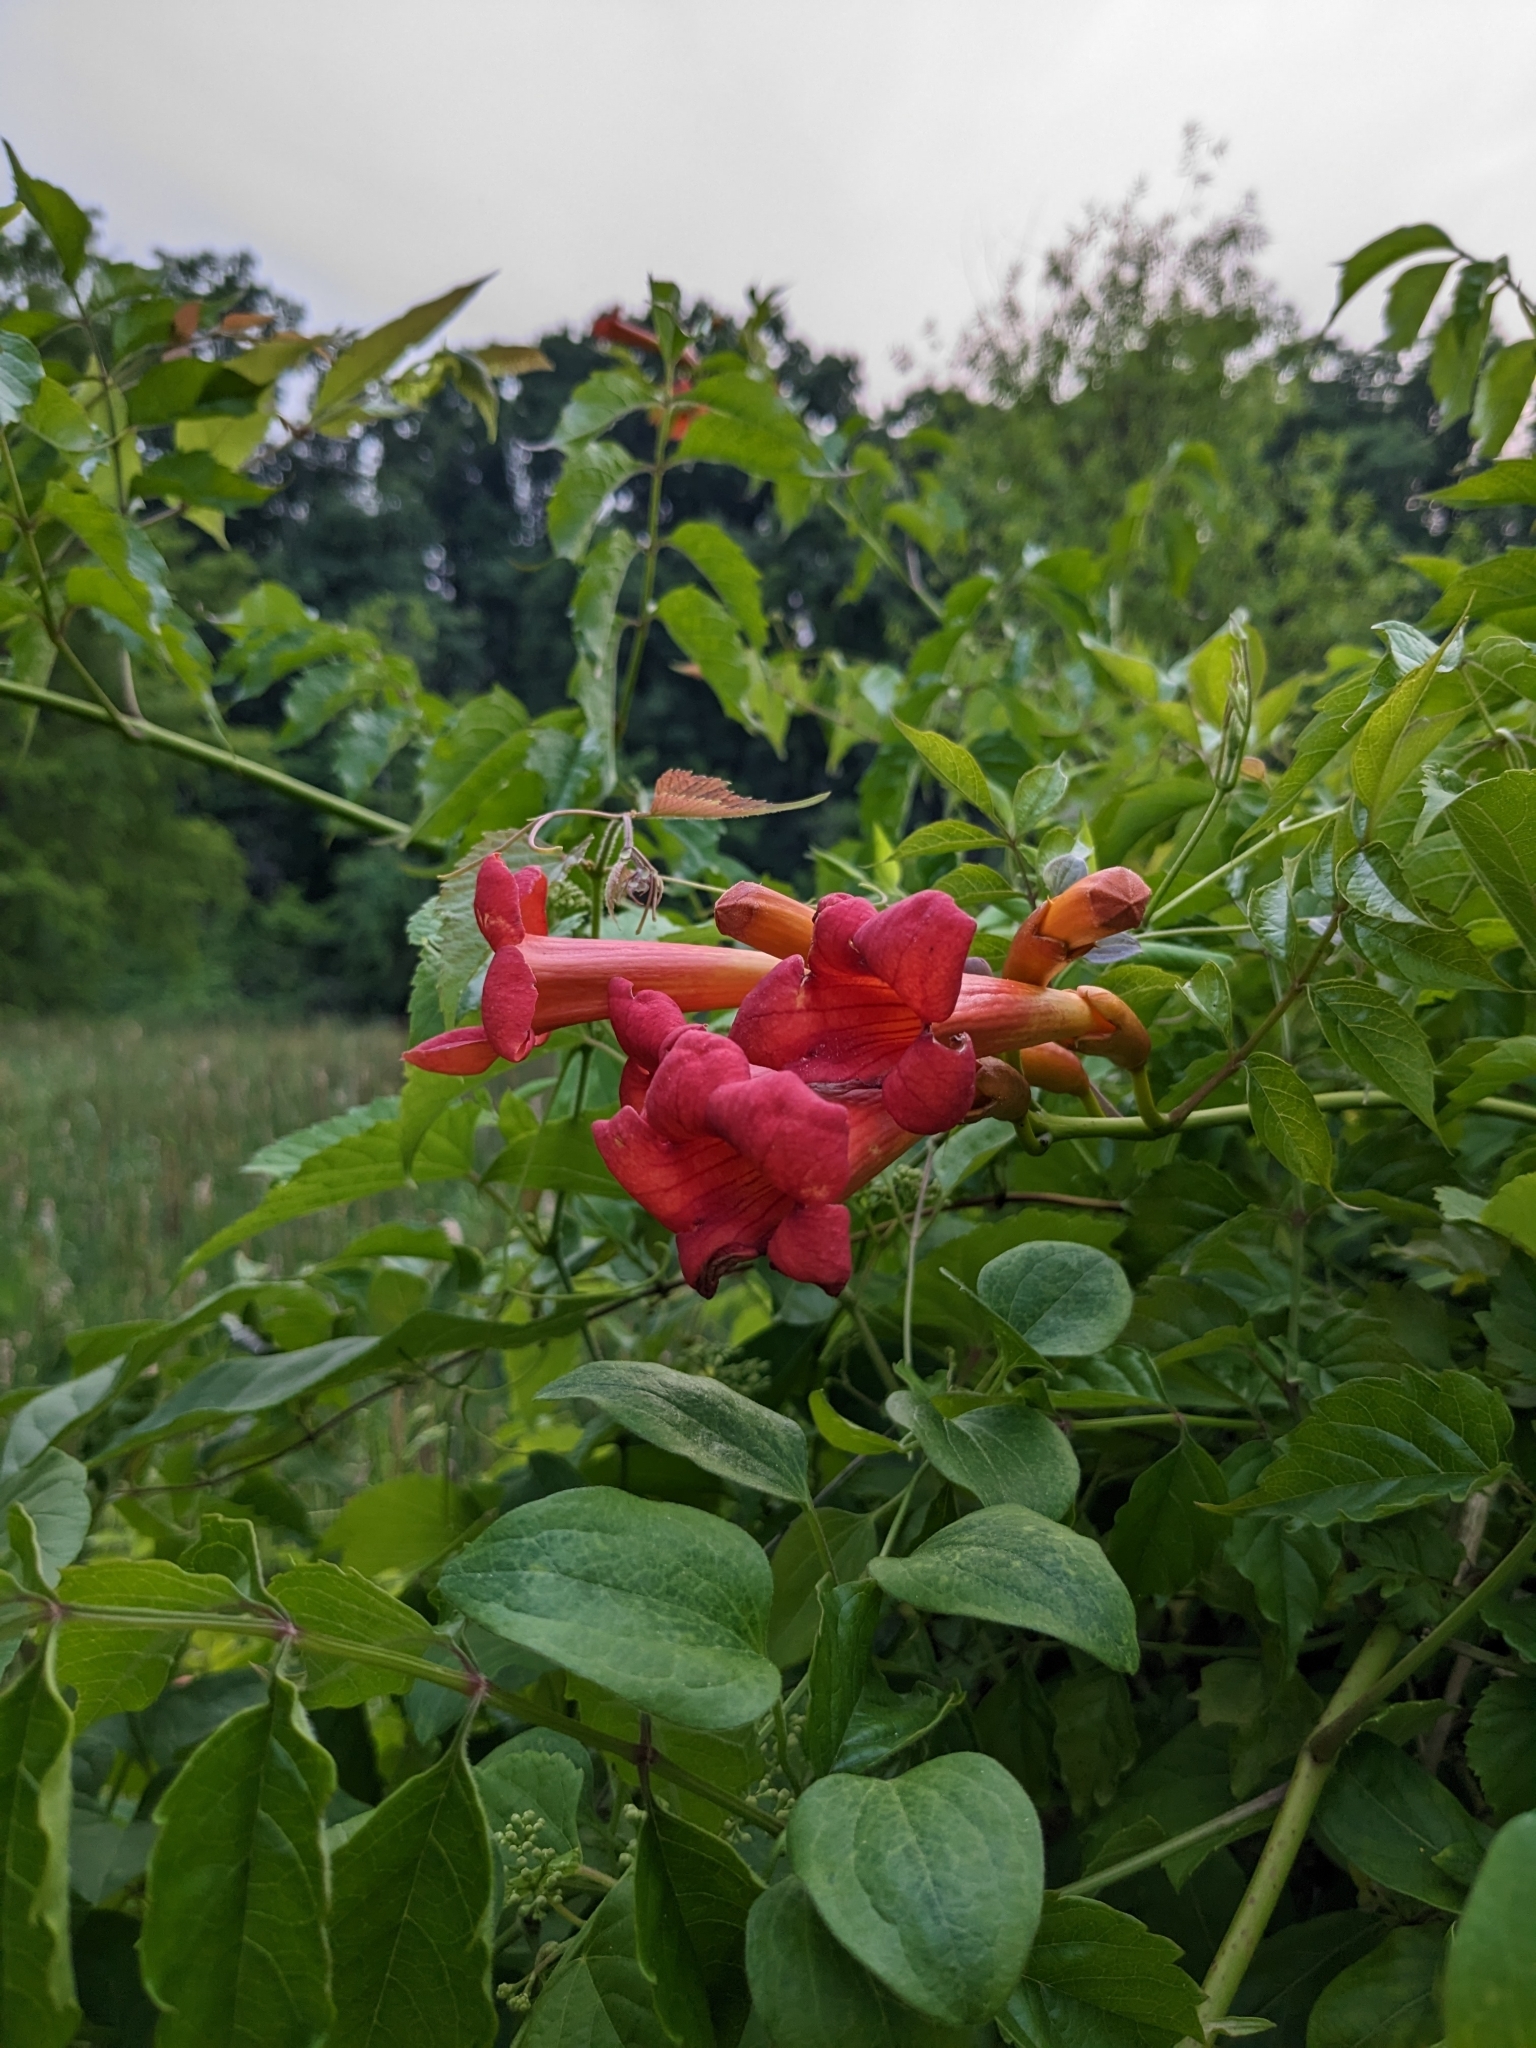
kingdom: Plantae
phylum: Tracheophyta
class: Magnoliopsida
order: Lamiales
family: Bignoniaceae
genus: Campsis
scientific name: Campsis radicans
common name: Trumpet-creeper
